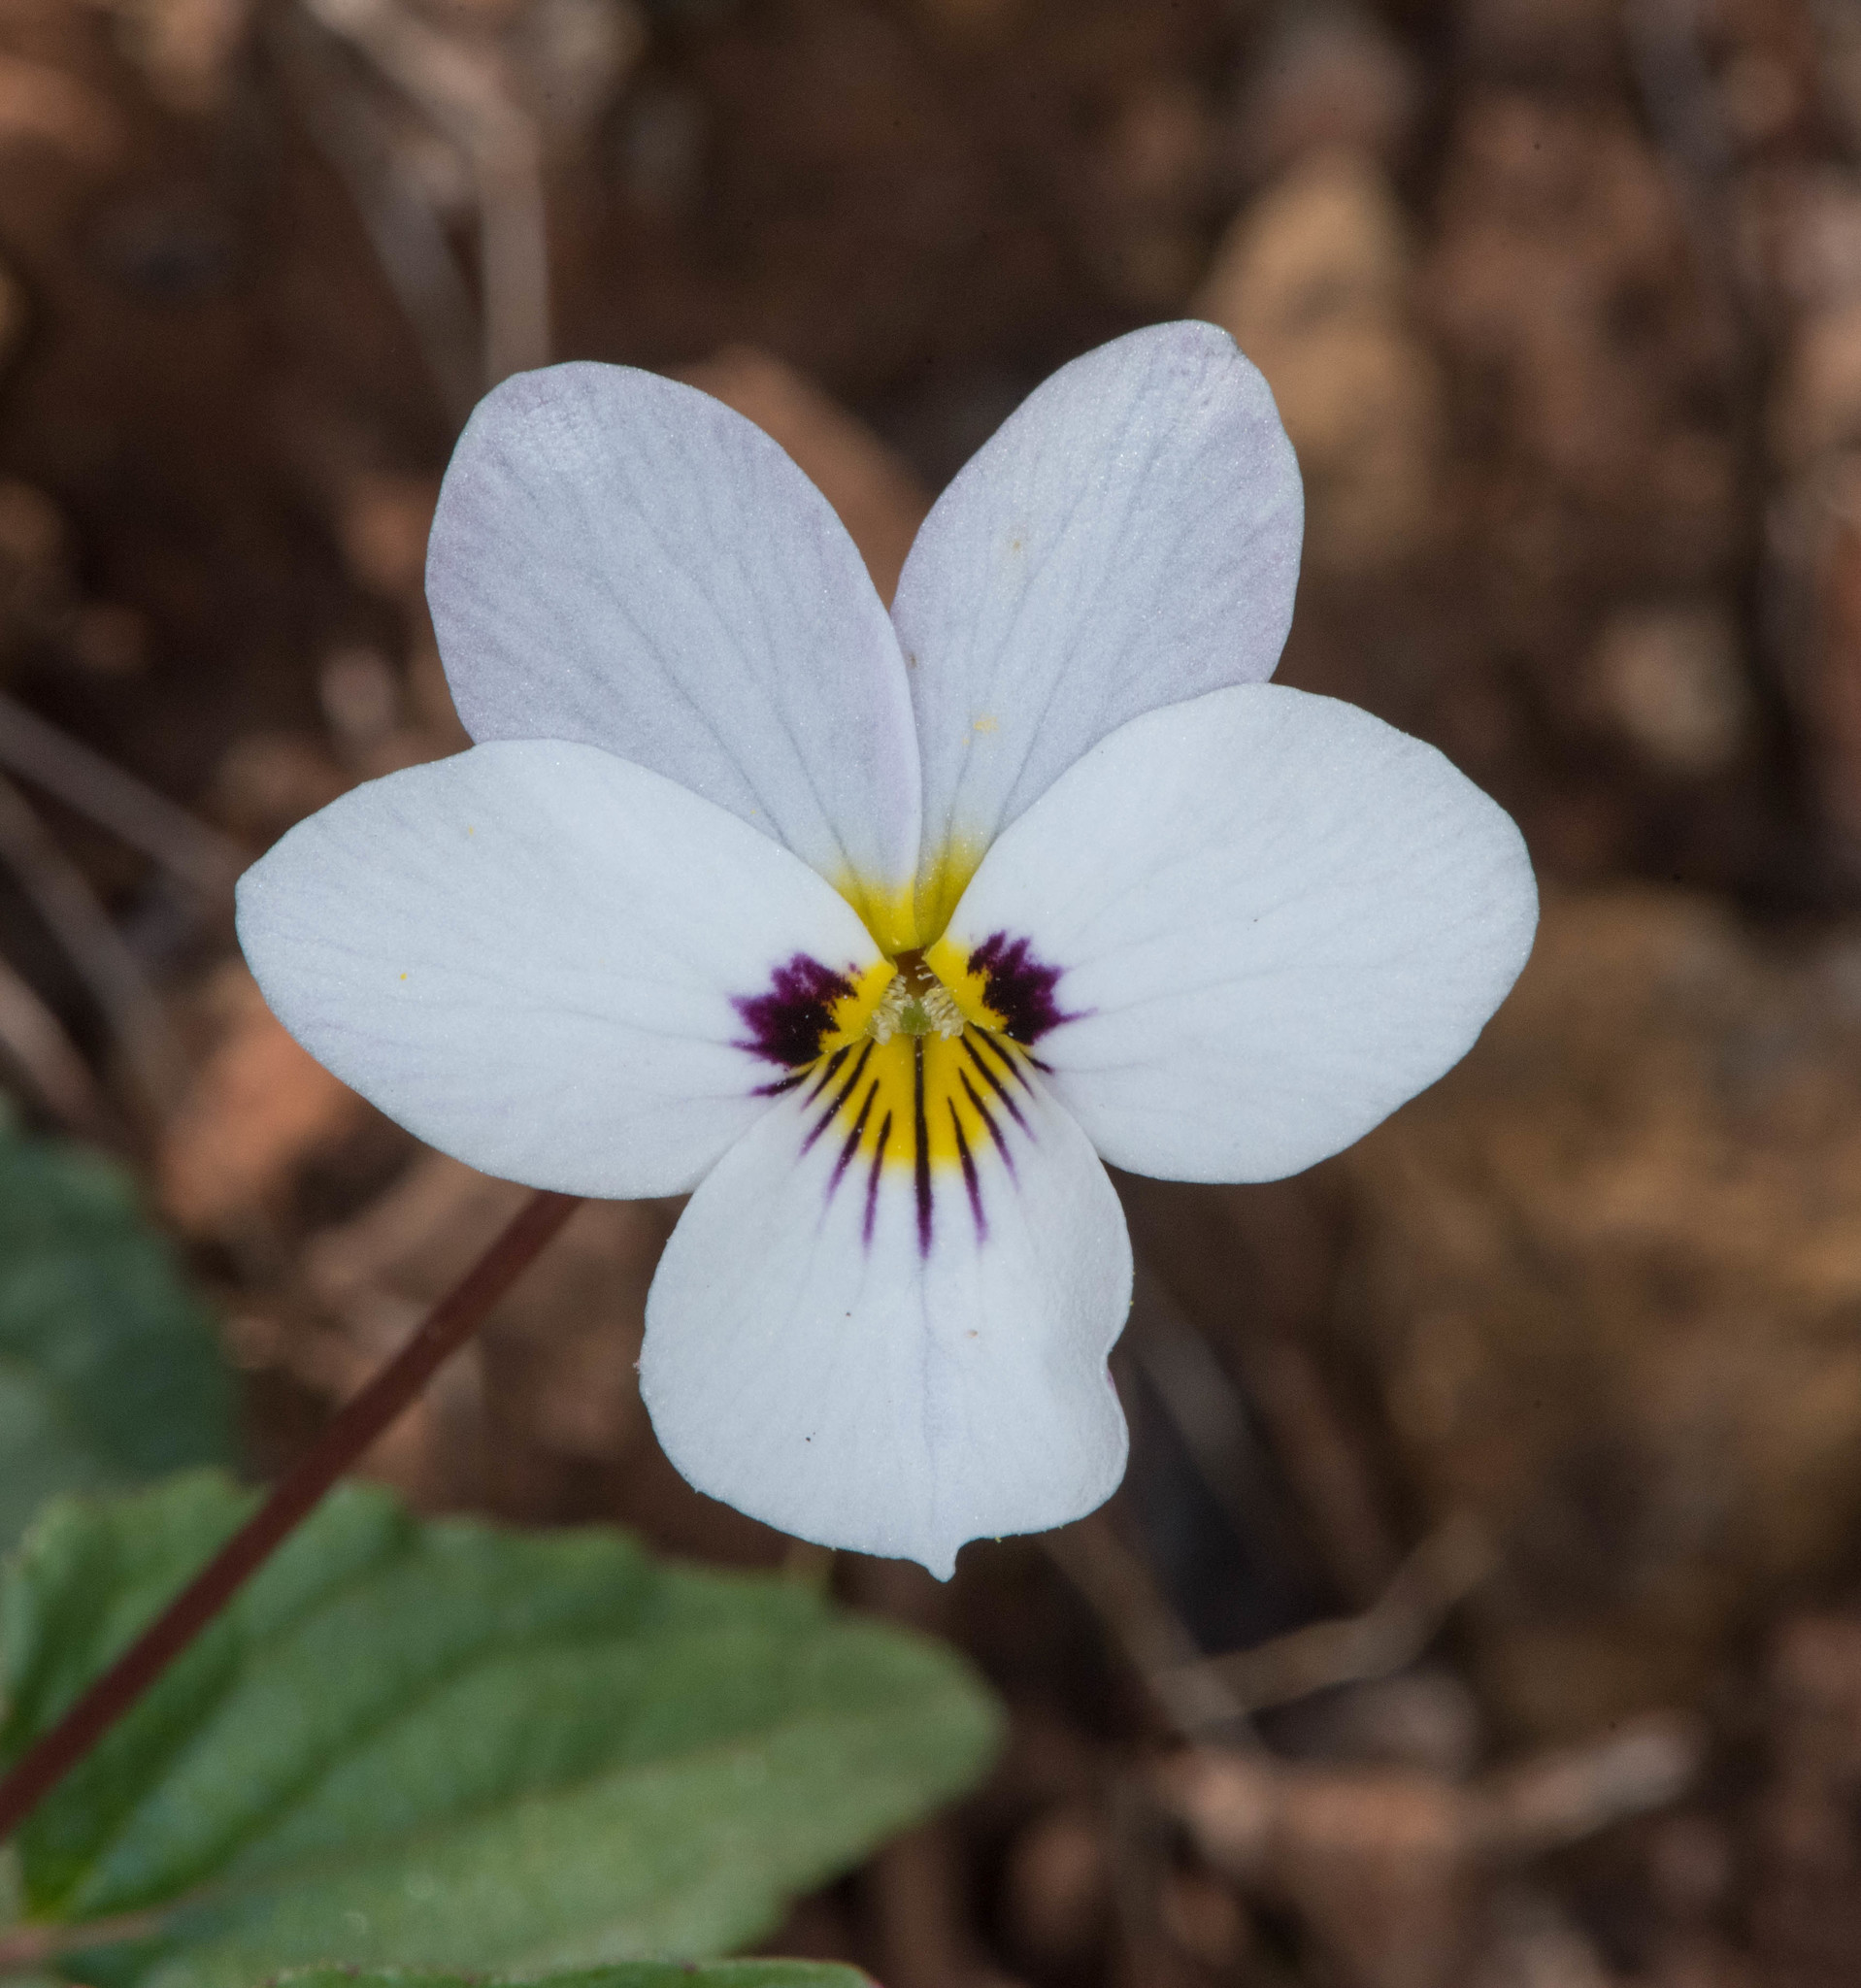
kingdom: Plantae
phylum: Tracheophyta
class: Magnoliopsida
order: Malpighiales
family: Violaceae
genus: Viola
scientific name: Viola ocellata
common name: Western heart's ease
